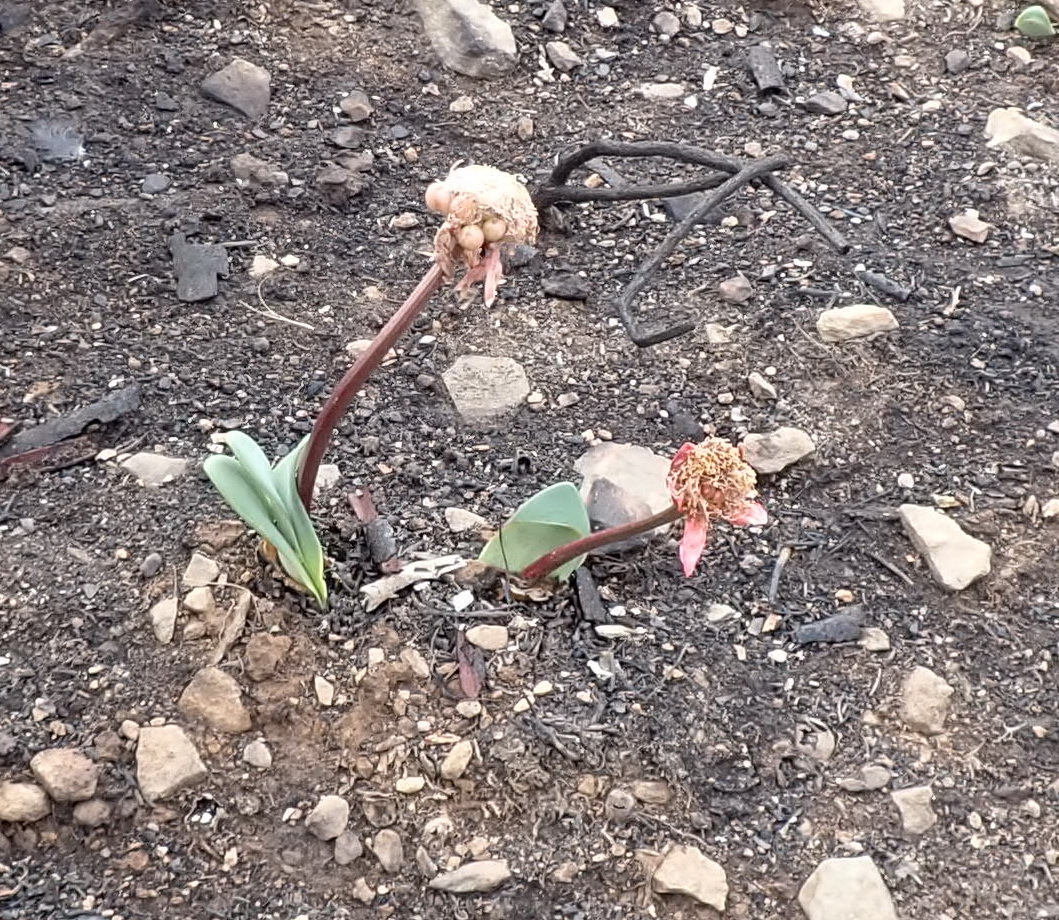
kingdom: Plantae
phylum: Tracheophyta
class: Liliopsida
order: Asparagales
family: Amaryllidaceae
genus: Haemanthus
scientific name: Haemanthus coccineus
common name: Cape-tulip
